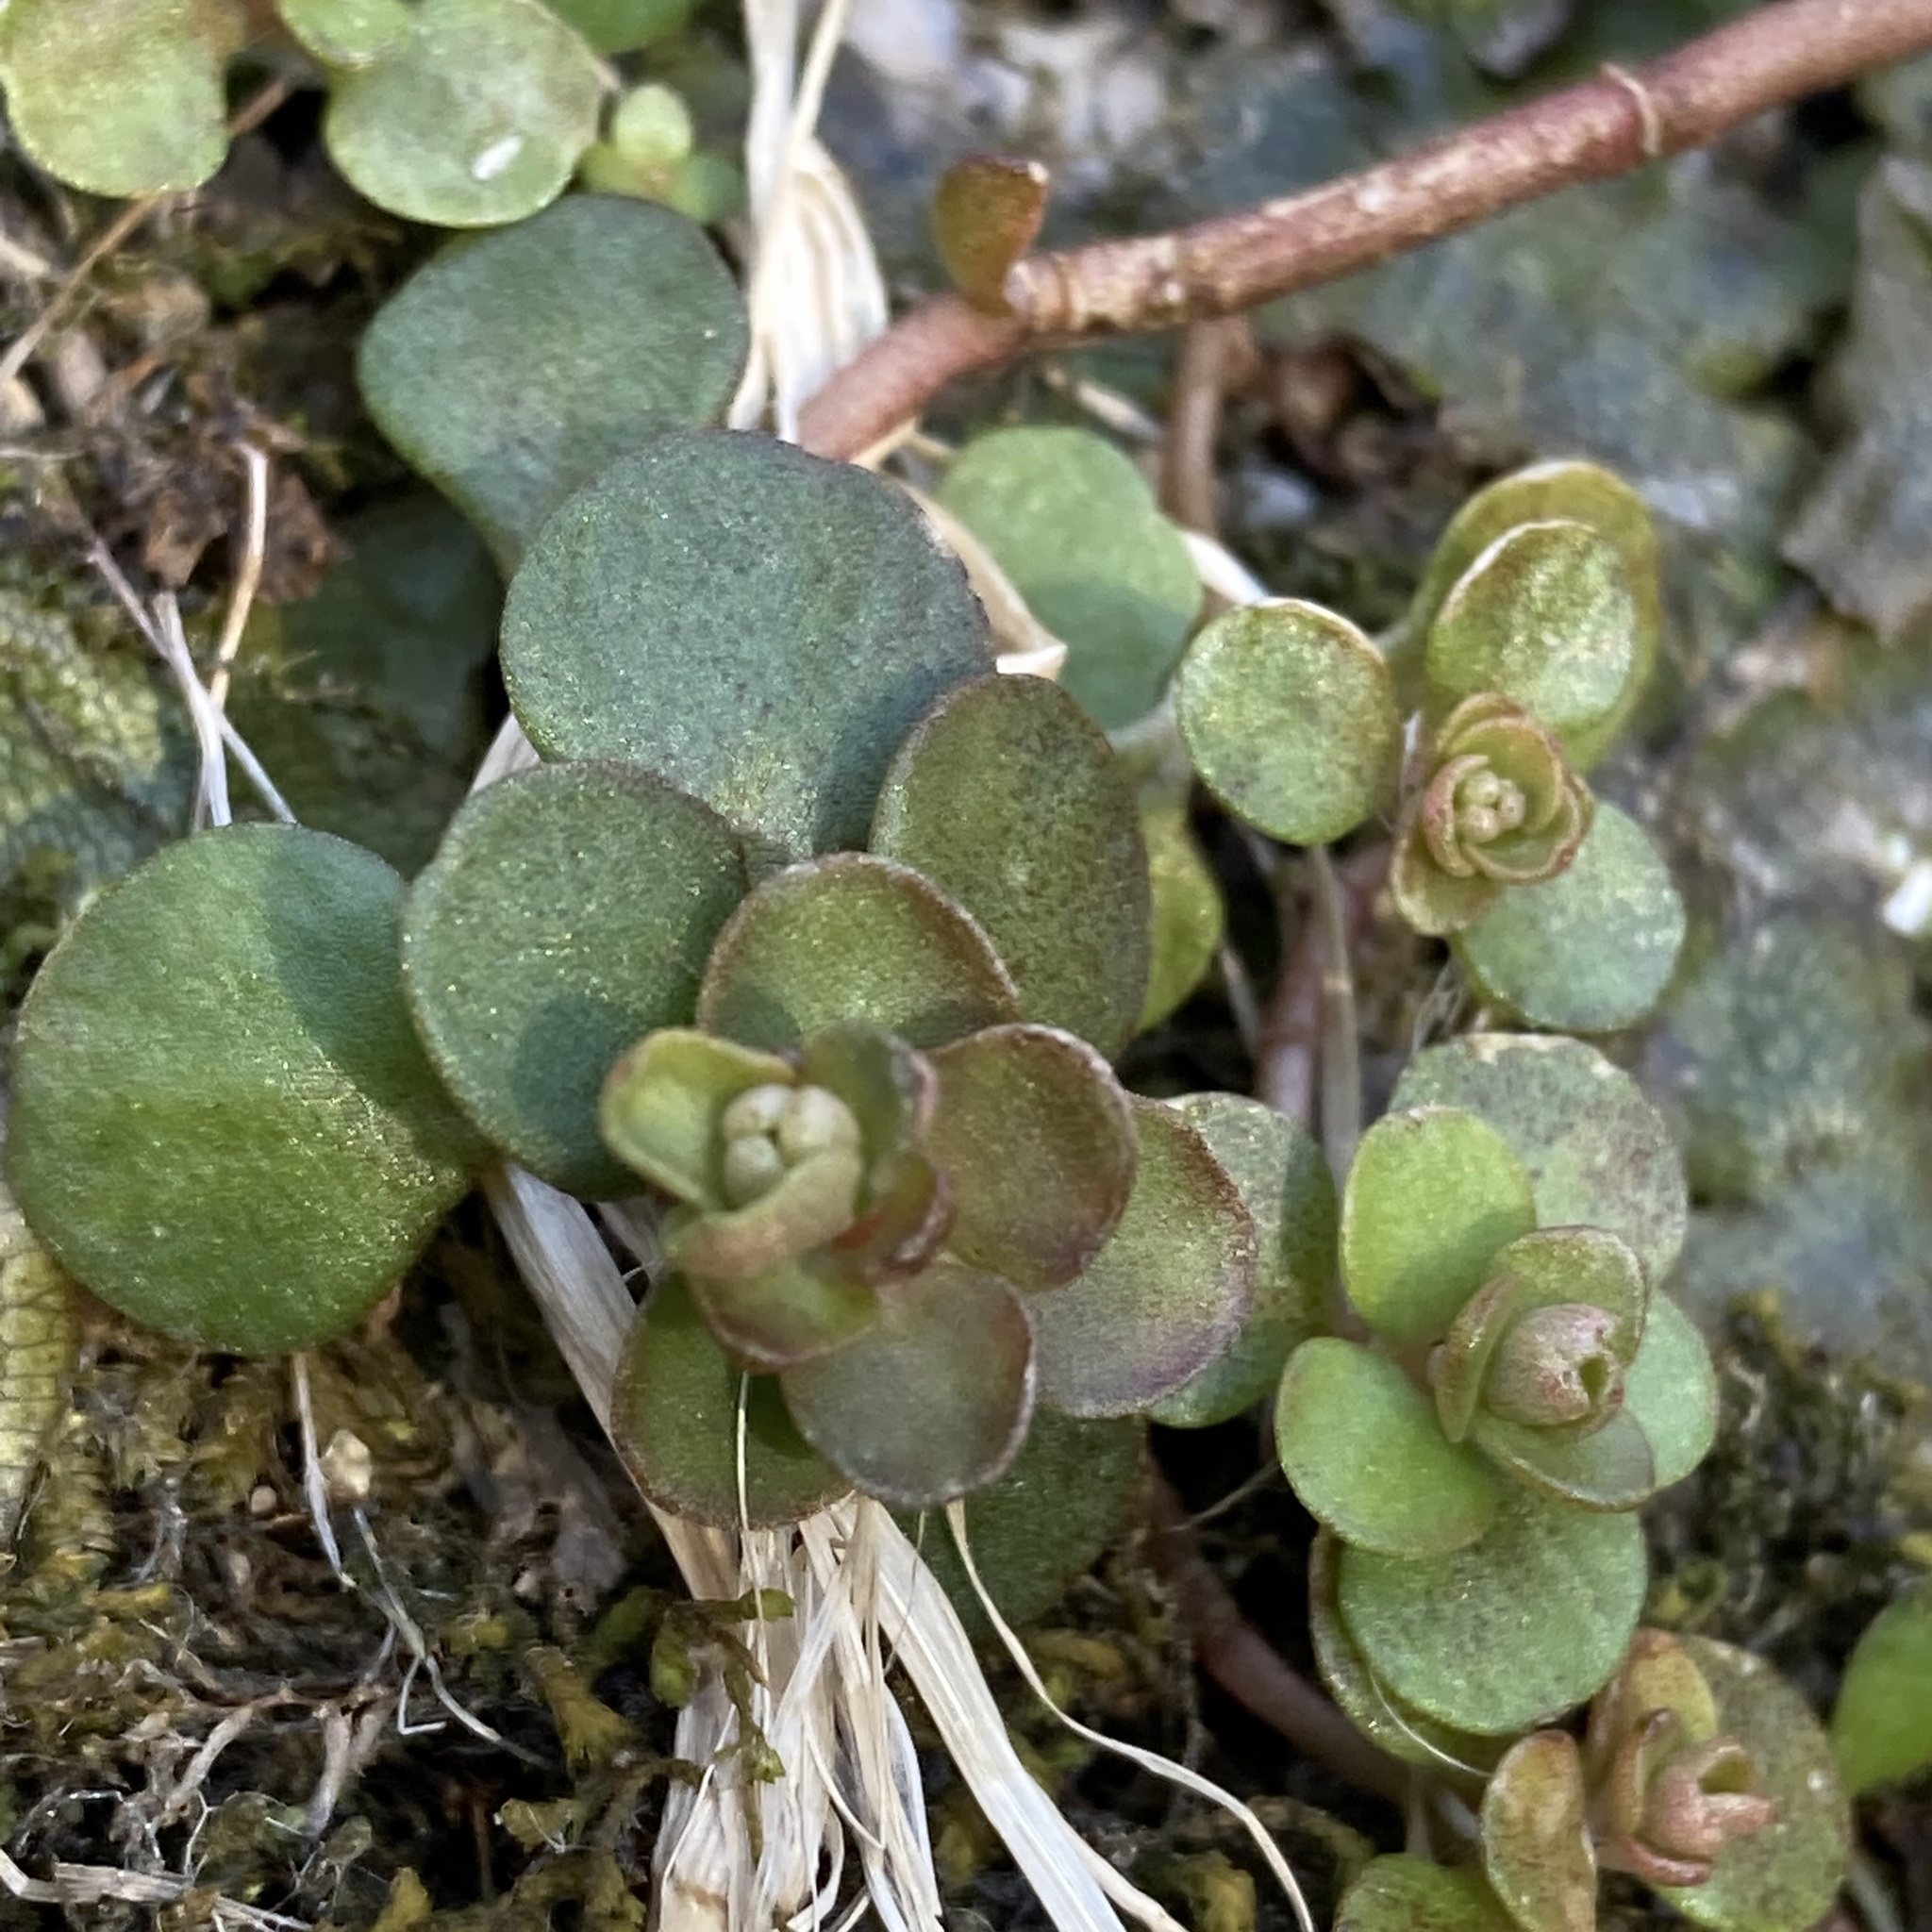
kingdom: Plantae
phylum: Tracheophyta
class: Magnoliopsida
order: Saxifragales
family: Crassulaceae
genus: Sedum
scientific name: Sedum ternatum
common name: Wild stonecrop
